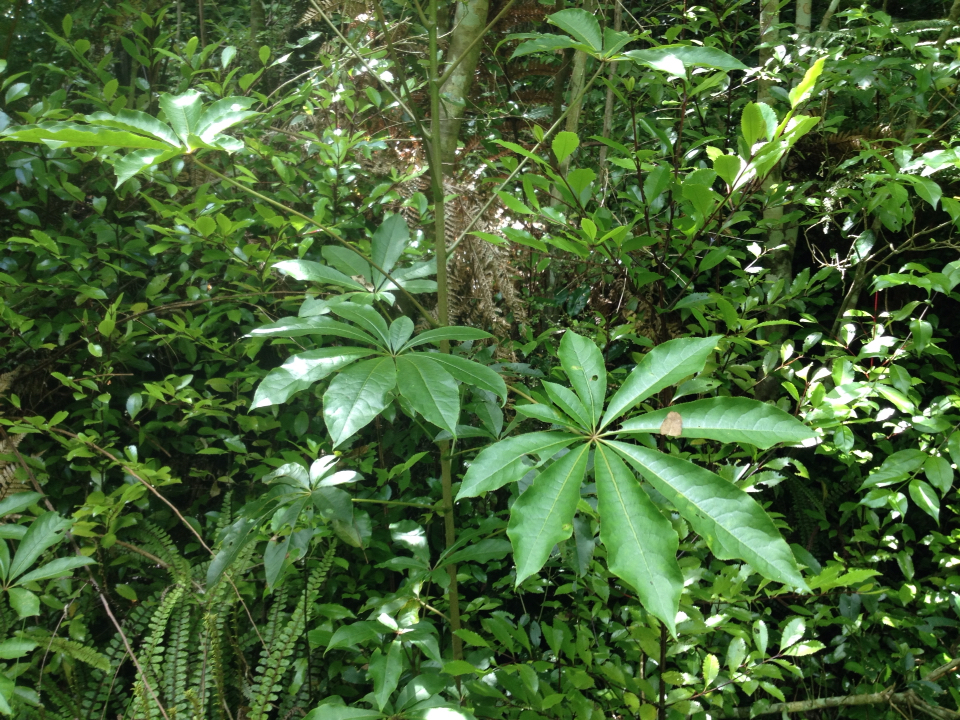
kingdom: Plantae
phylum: Tracheophyta
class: Magnoliopsida
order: Apiales
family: Araliaceae
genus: Schefflera
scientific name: Schefflera digitata
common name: Pate
